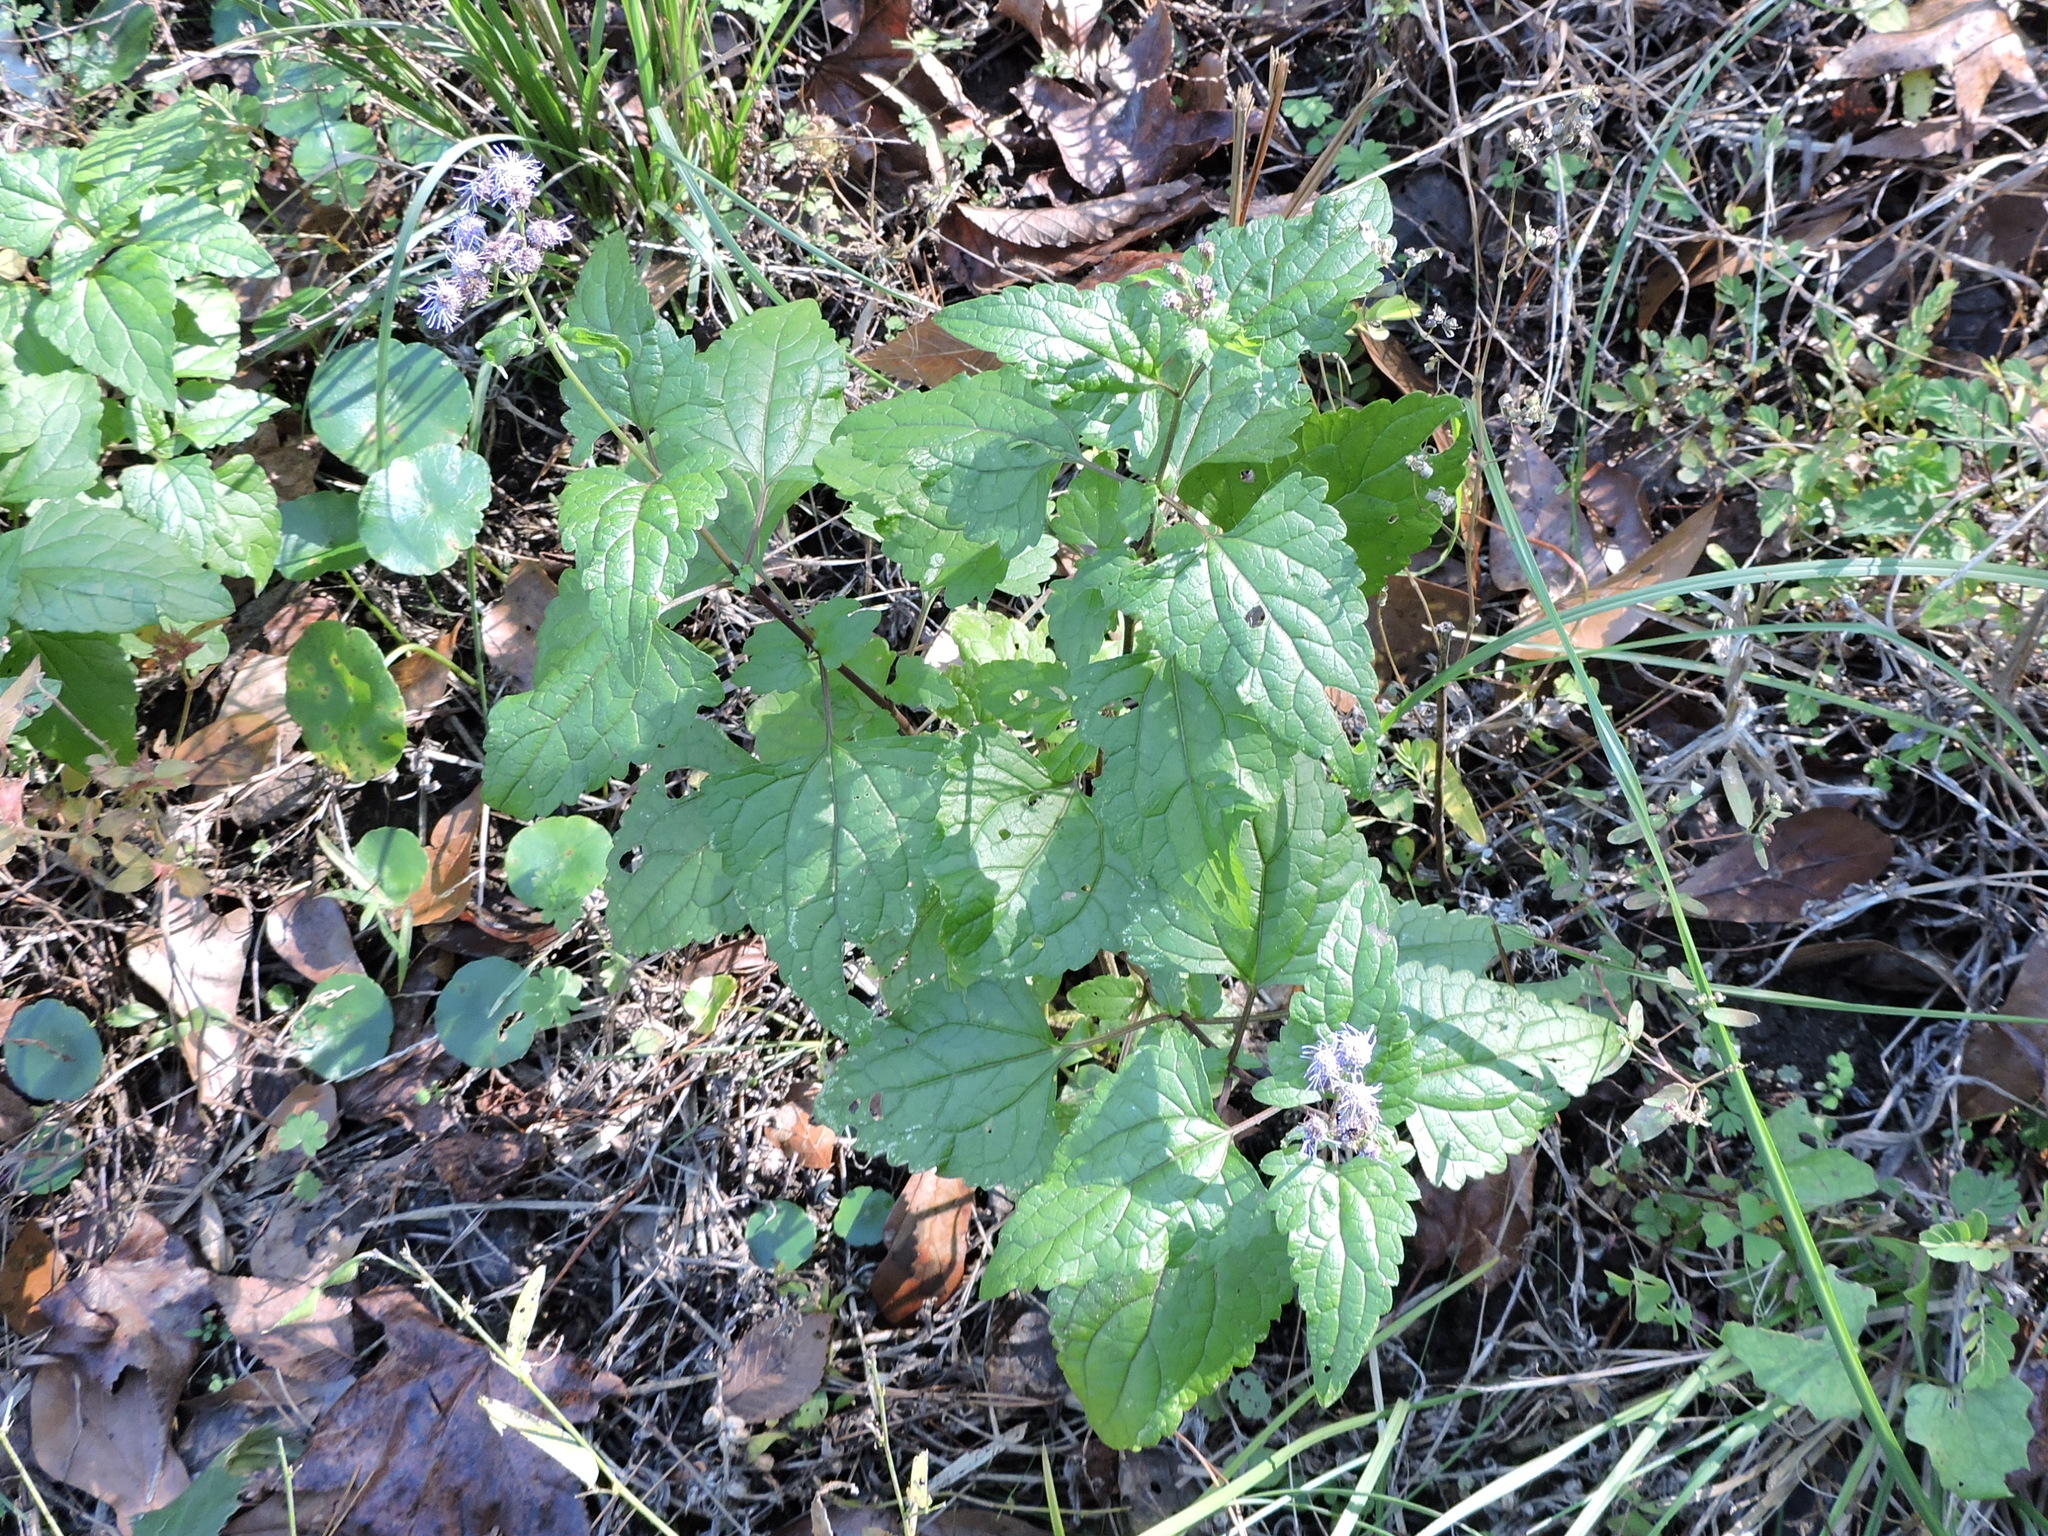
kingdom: Plantae
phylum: Tracheophyta
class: Magnoliopsida
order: Asterales
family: Asteraceae
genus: Conoclinium
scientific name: Conoclinium coelestinum
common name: Blue mistflower
